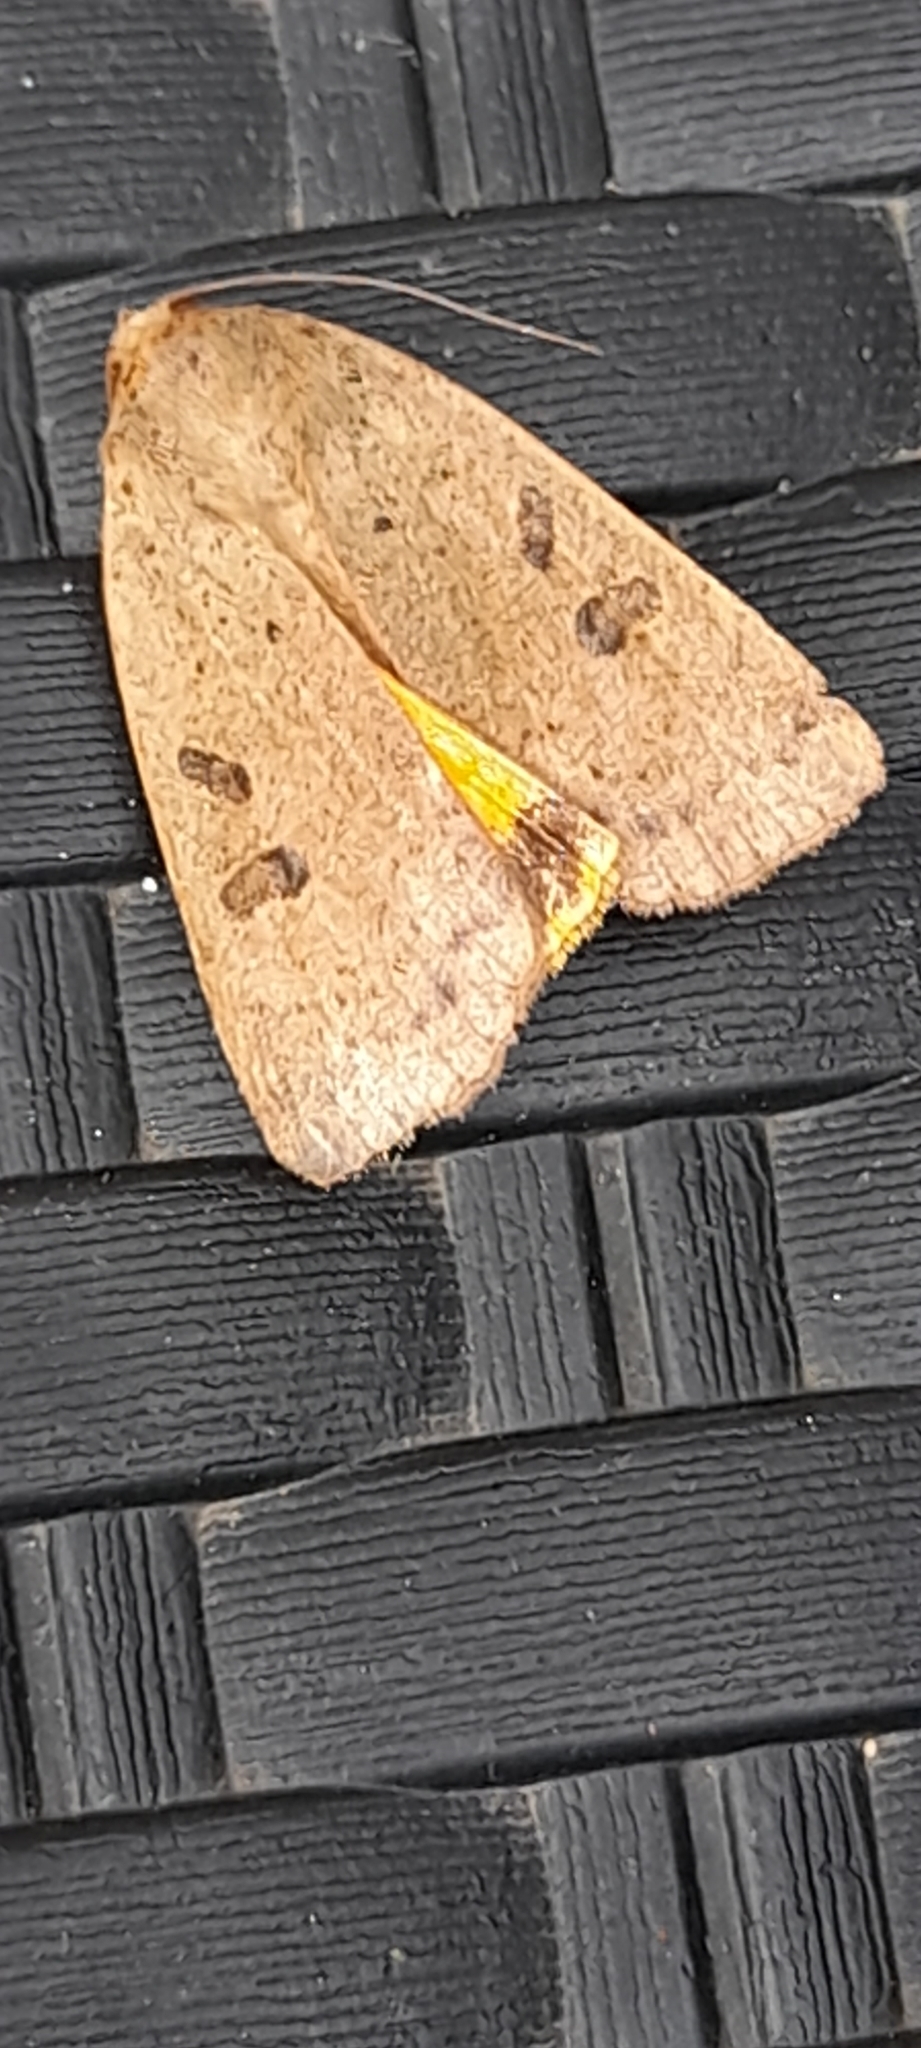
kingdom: Animalia
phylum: Arthropoda
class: Insecta
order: Lepidoptera
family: Noctuidae
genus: Noctua
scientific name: Noctua comes
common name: Lesser yellow underwing
